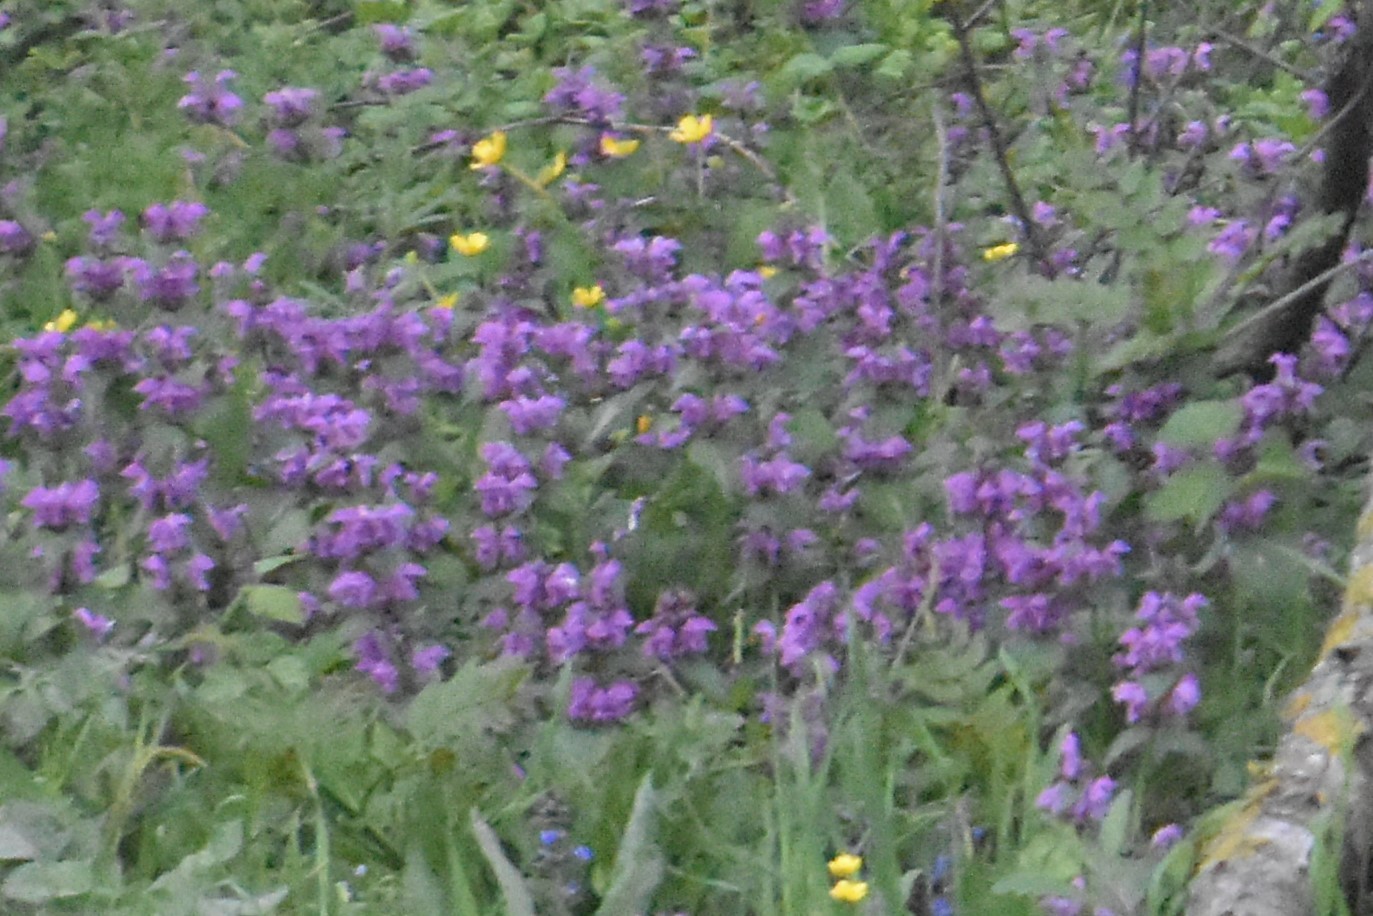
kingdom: Plantae
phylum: Tracheophyta
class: Magnoliopsida
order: Lamiales
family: Lamiaceae
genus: Lamium
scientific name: Lamium maculatum
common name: Spotted dead-nettle
